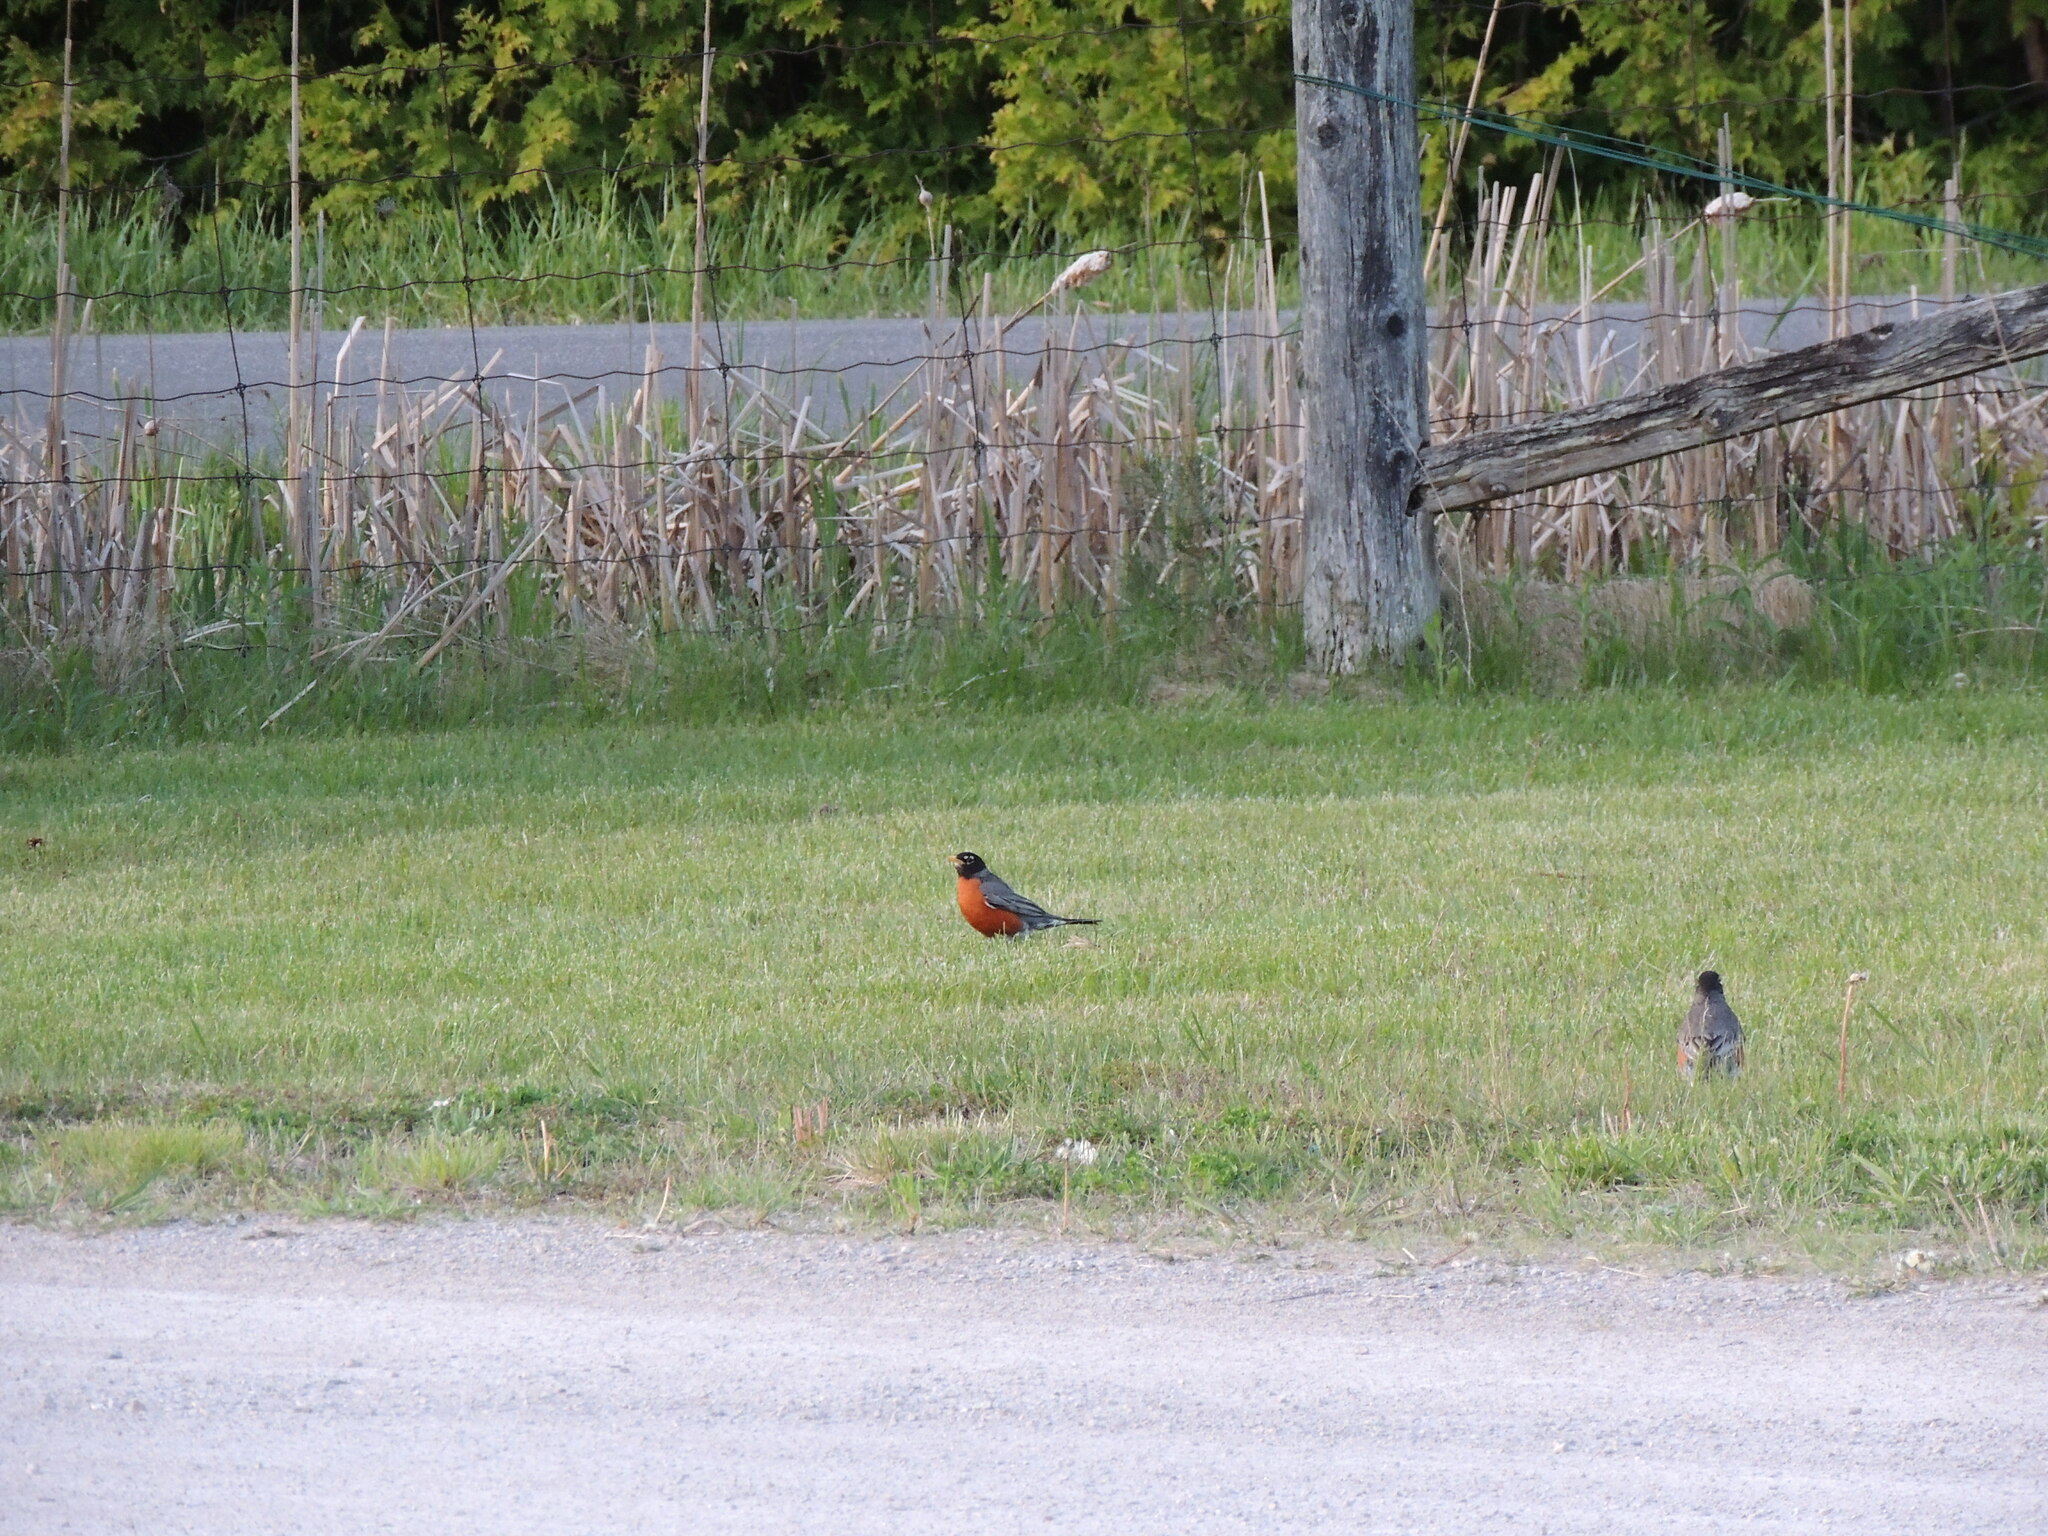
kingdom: Animalia
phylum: Chordata
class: Aves
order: Passeriformes
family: Turdidae
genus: Turdus
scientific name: Turdus migratorius
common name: American robin
